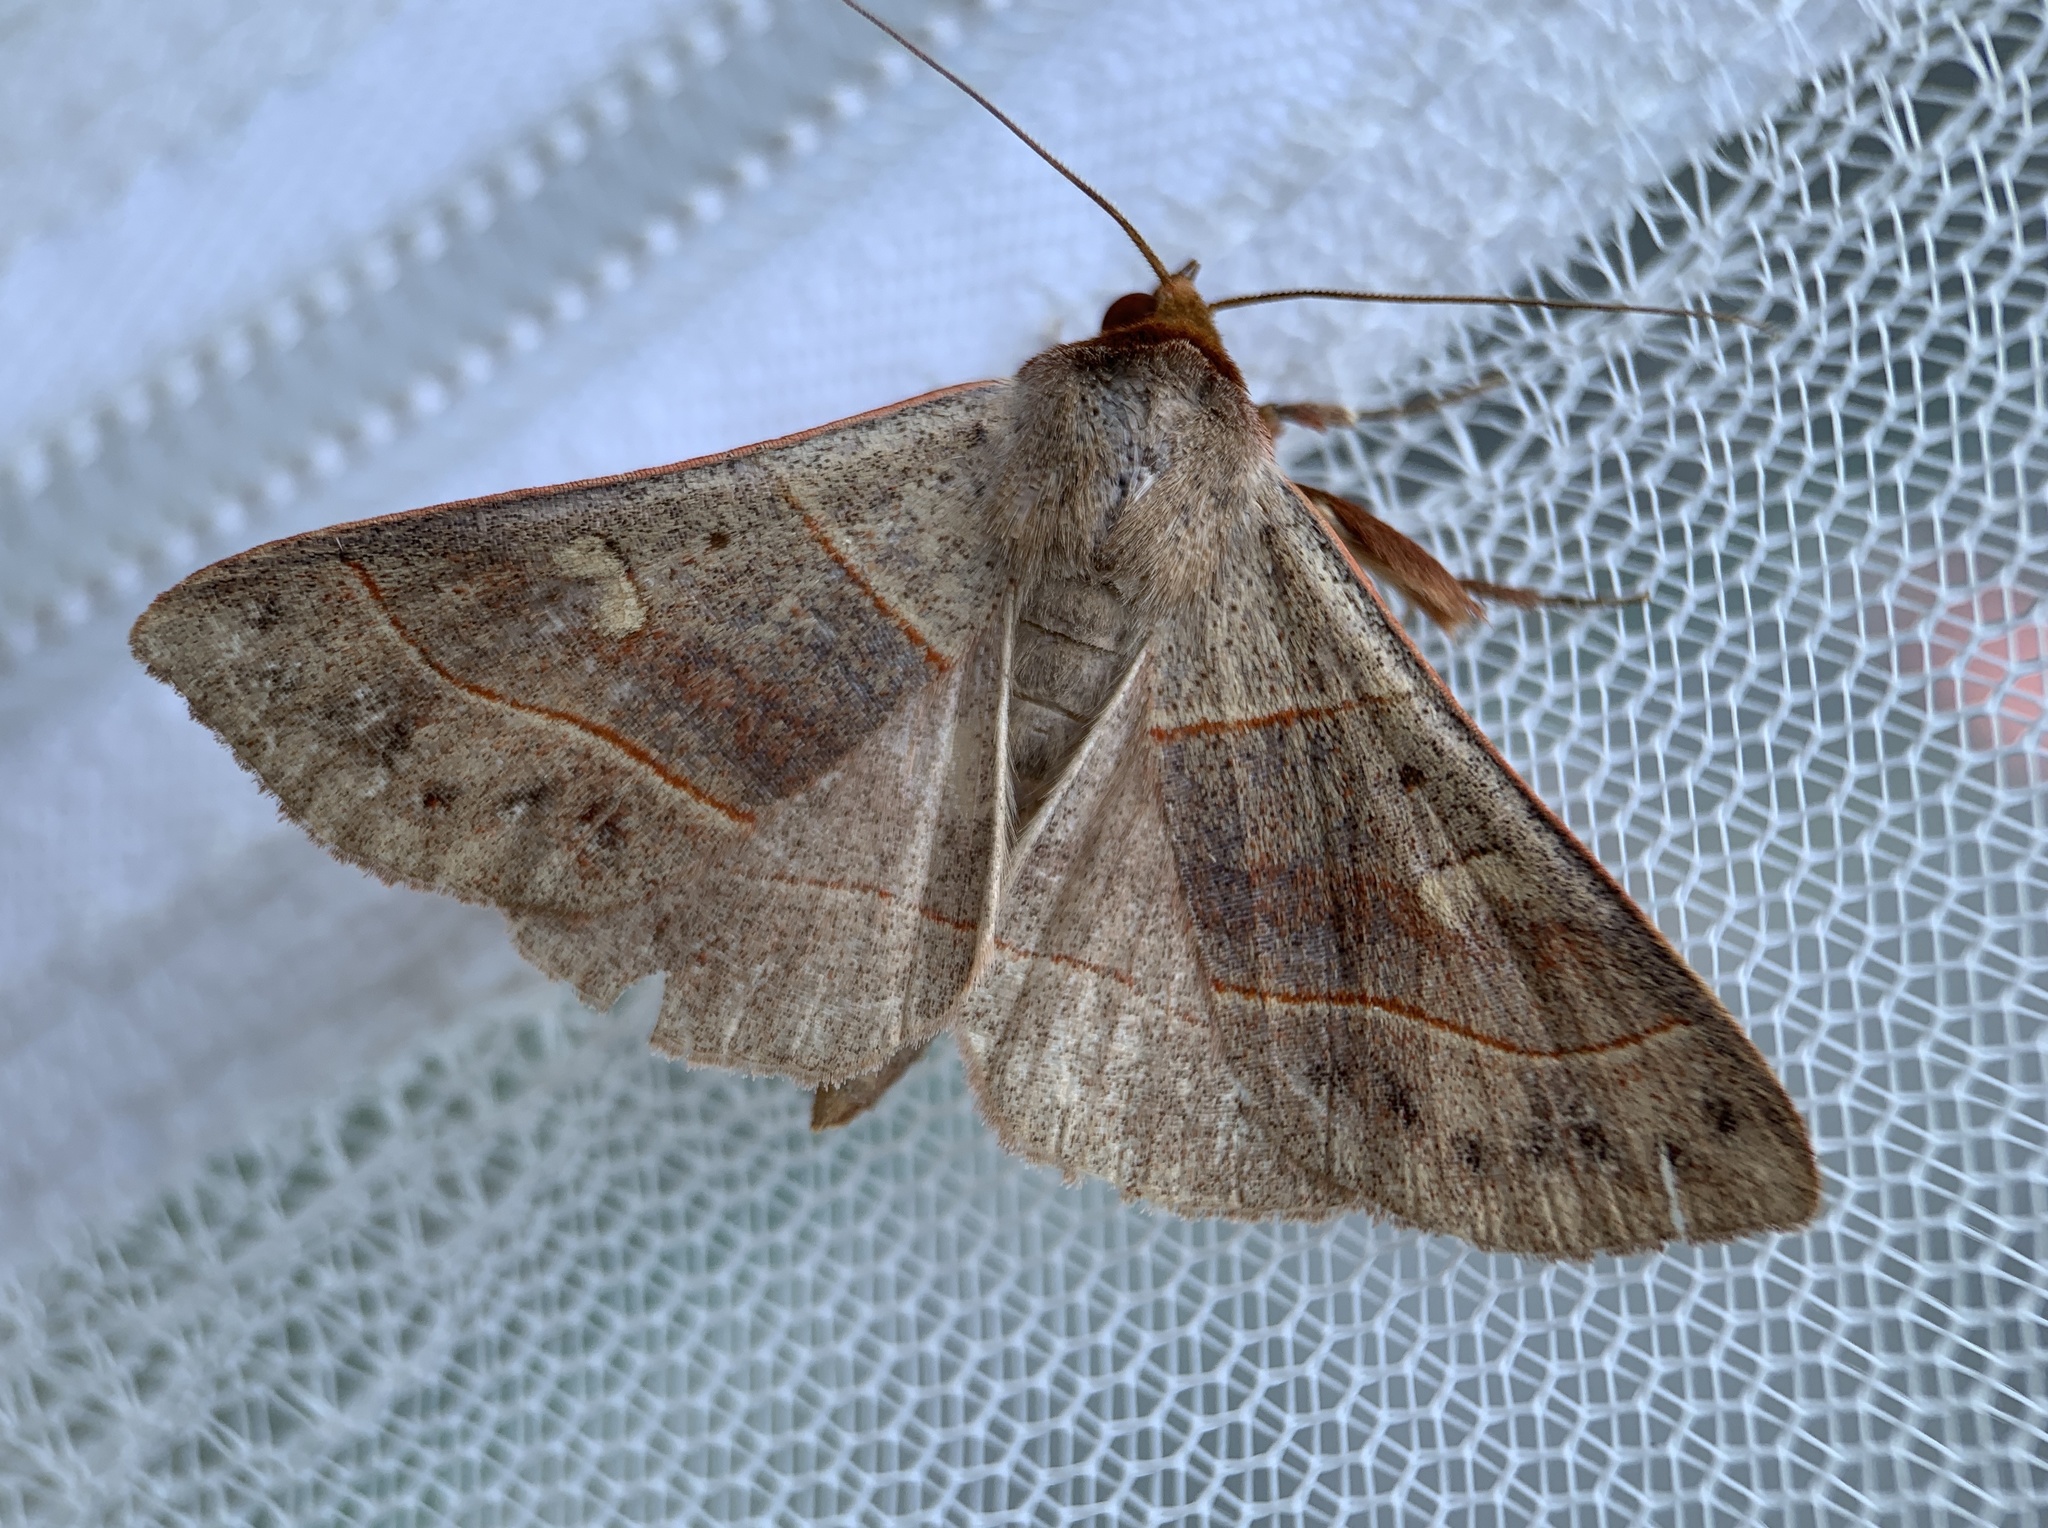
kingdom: Animalia
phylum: Arthropoda
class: Insecta
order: Lepidoptera
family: Erebidae
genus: Panopoda
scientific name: Panopoda rufimargo
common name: Red-lined panopoda moth
